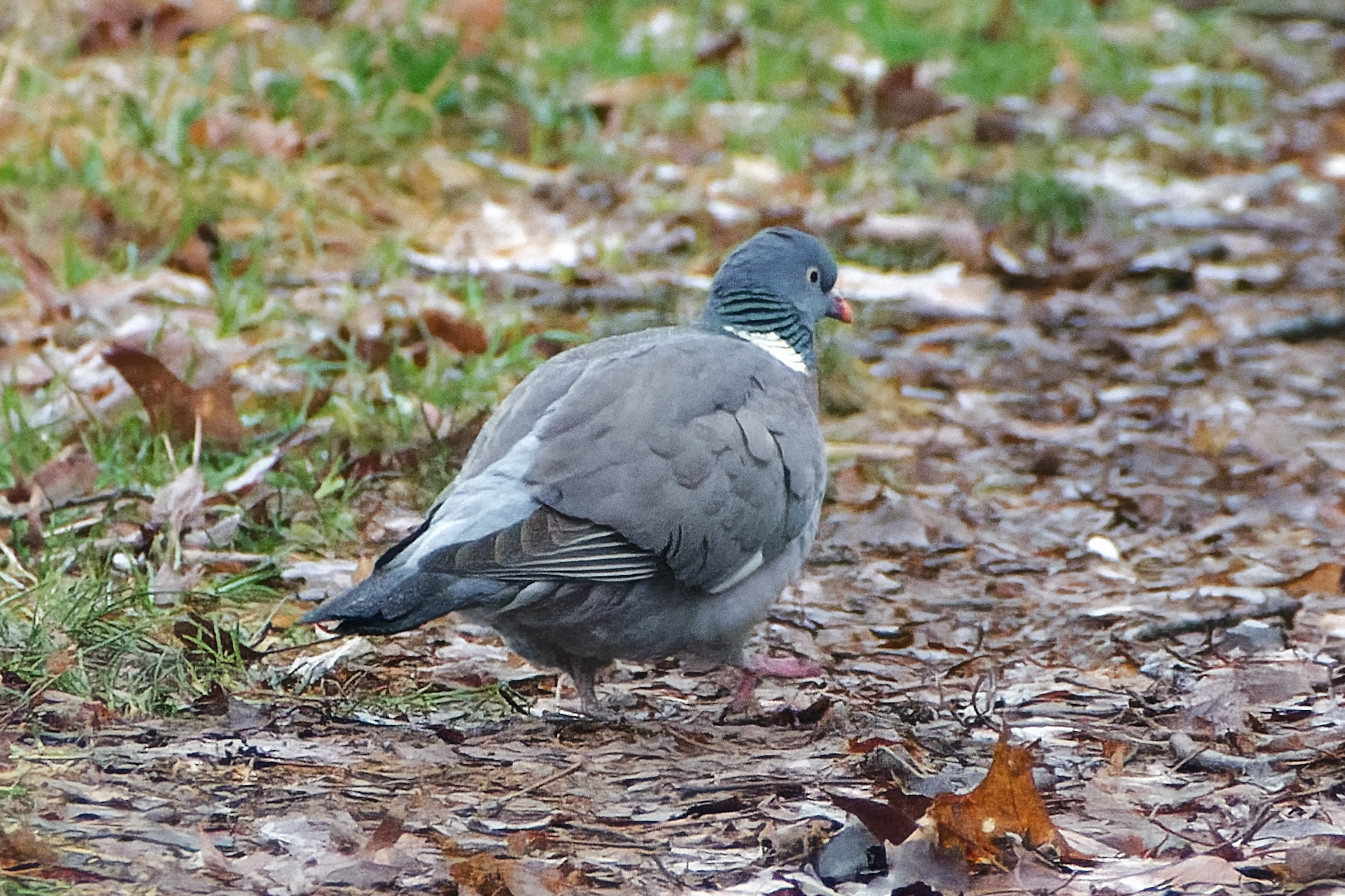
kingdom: Animalia
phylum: Chordata
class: Aves
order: Columbiformes
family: Columbidae
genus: Columba
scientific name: Columba palumbus
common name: Common wood pigeon
